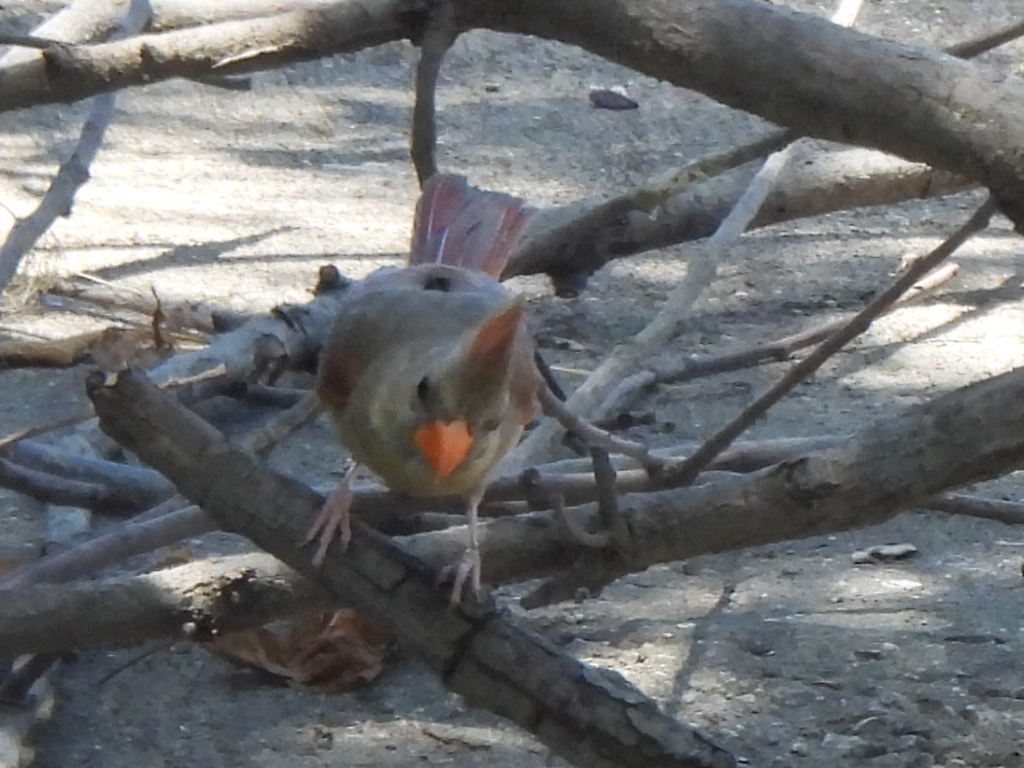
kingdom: Animalia
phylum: Chordata
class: Aves
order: Passeriformes
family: Cardinalidae
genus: Cardinalis
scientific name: Cardinalis cardinalis
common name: Northern cardinal
